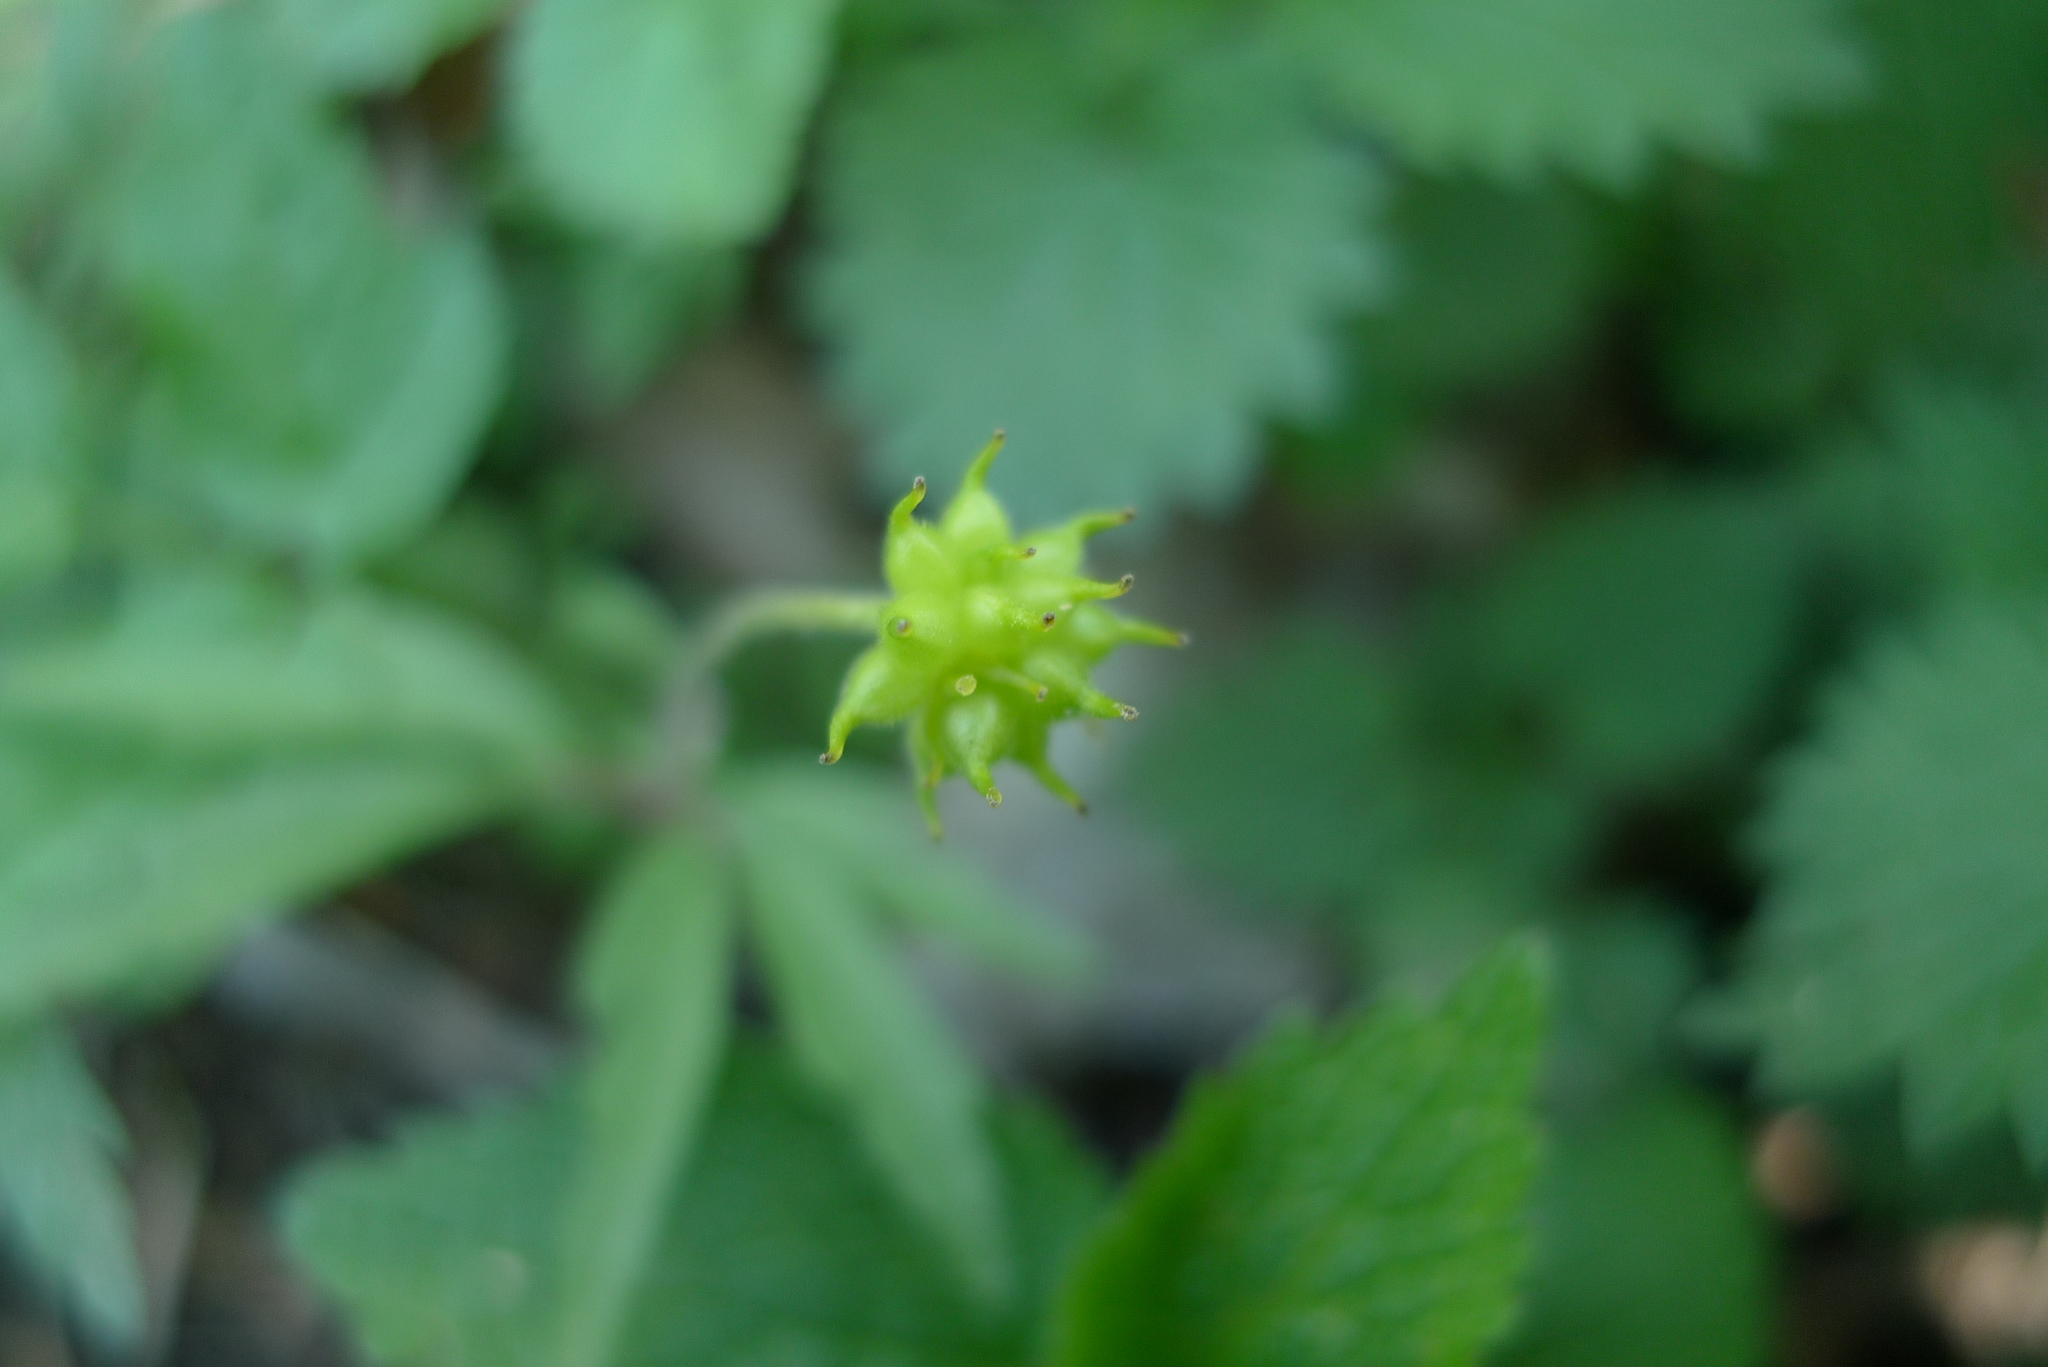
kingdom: Plantae
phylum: Tracheophyta
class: Magnoliopsida
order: Ranunculales
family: Ranunculaceae
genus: Anemone
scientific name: Anemone ranunculoides
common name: Yellow anemone
